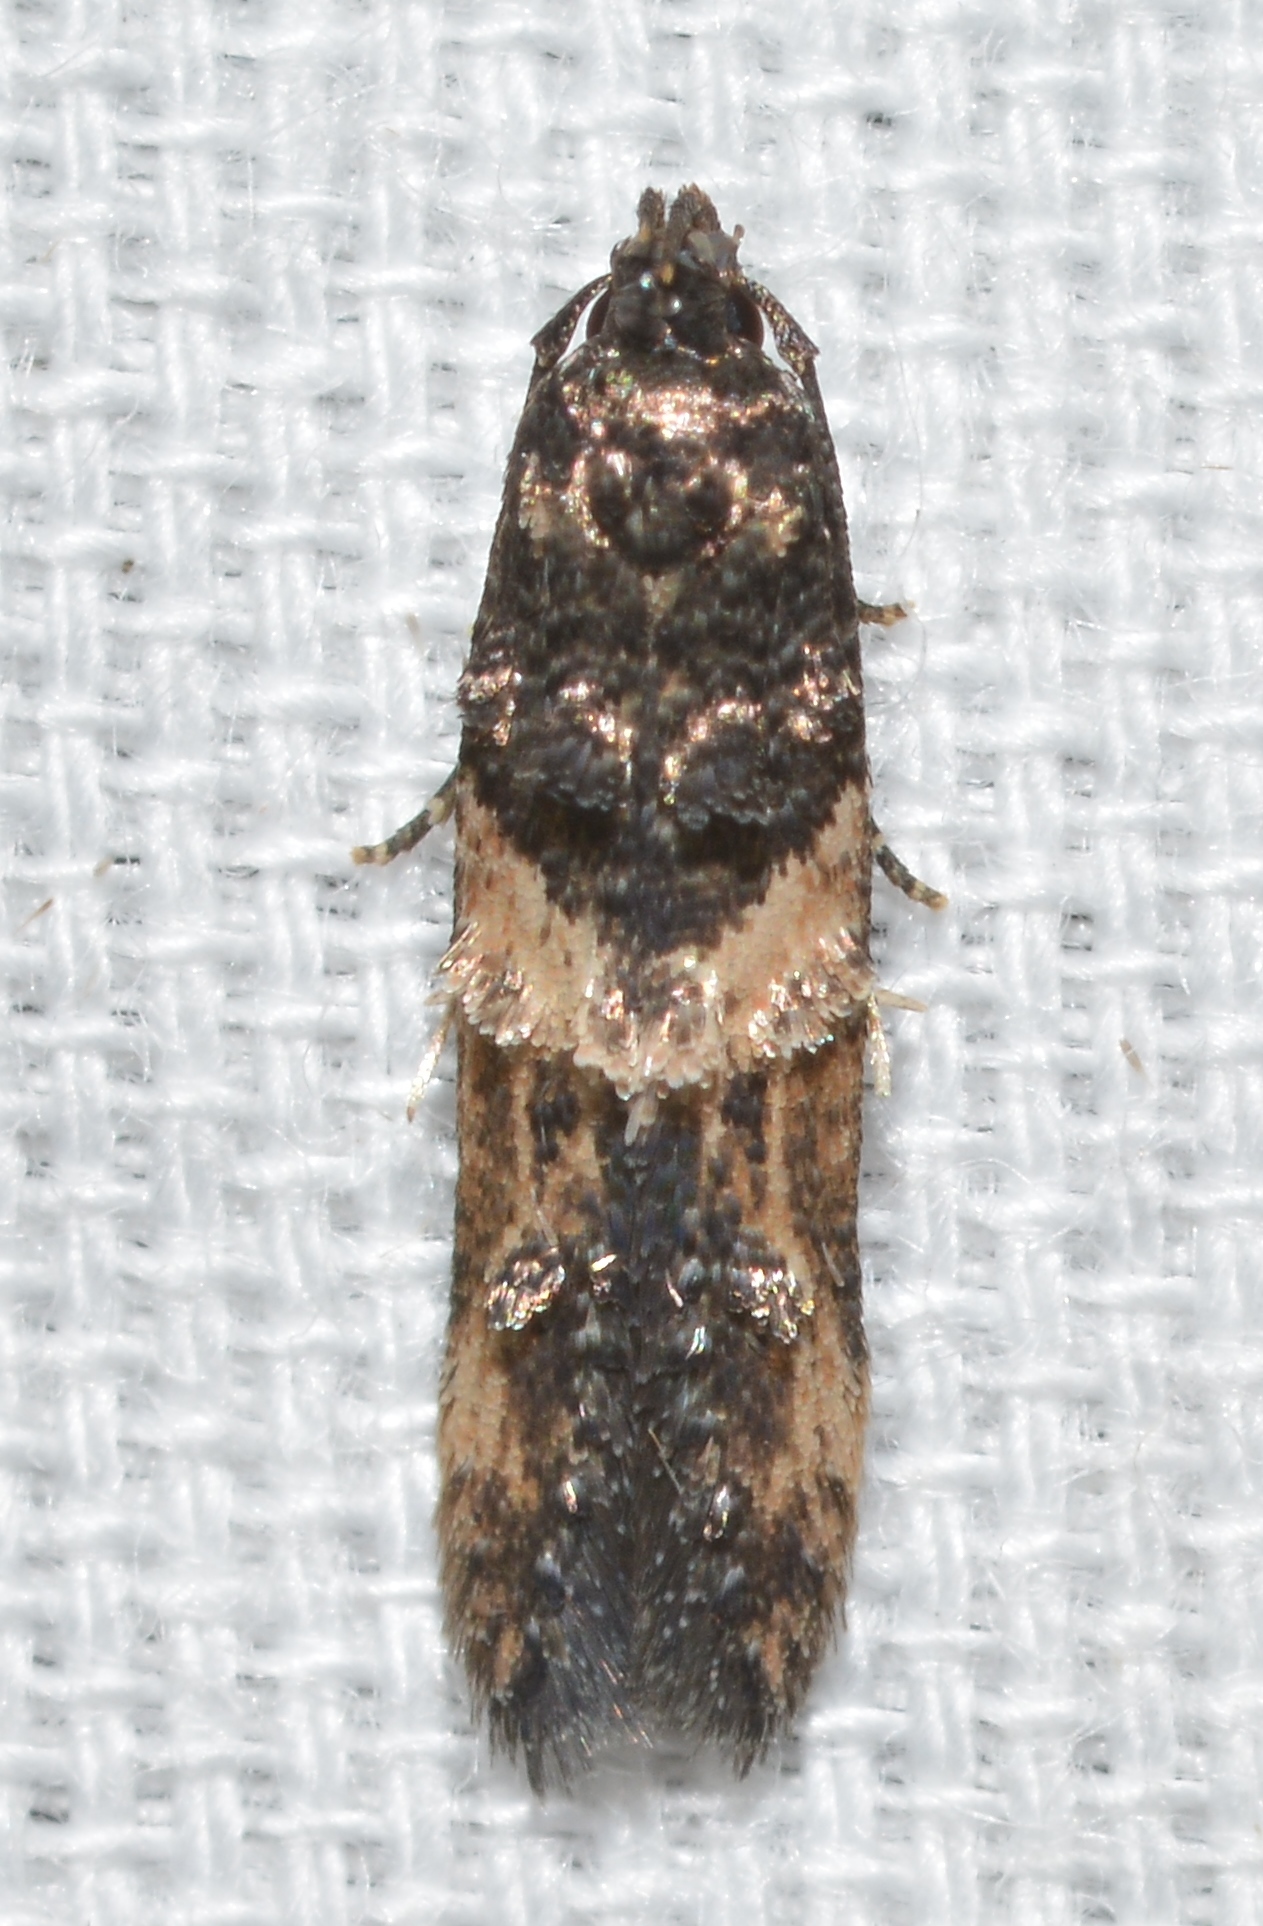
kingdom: Animalia
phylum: Arthropoda
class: Insecta
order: Lepidoptera
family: Cosmopterigidae
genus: Walshia
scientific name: Walshia miscecolorella
